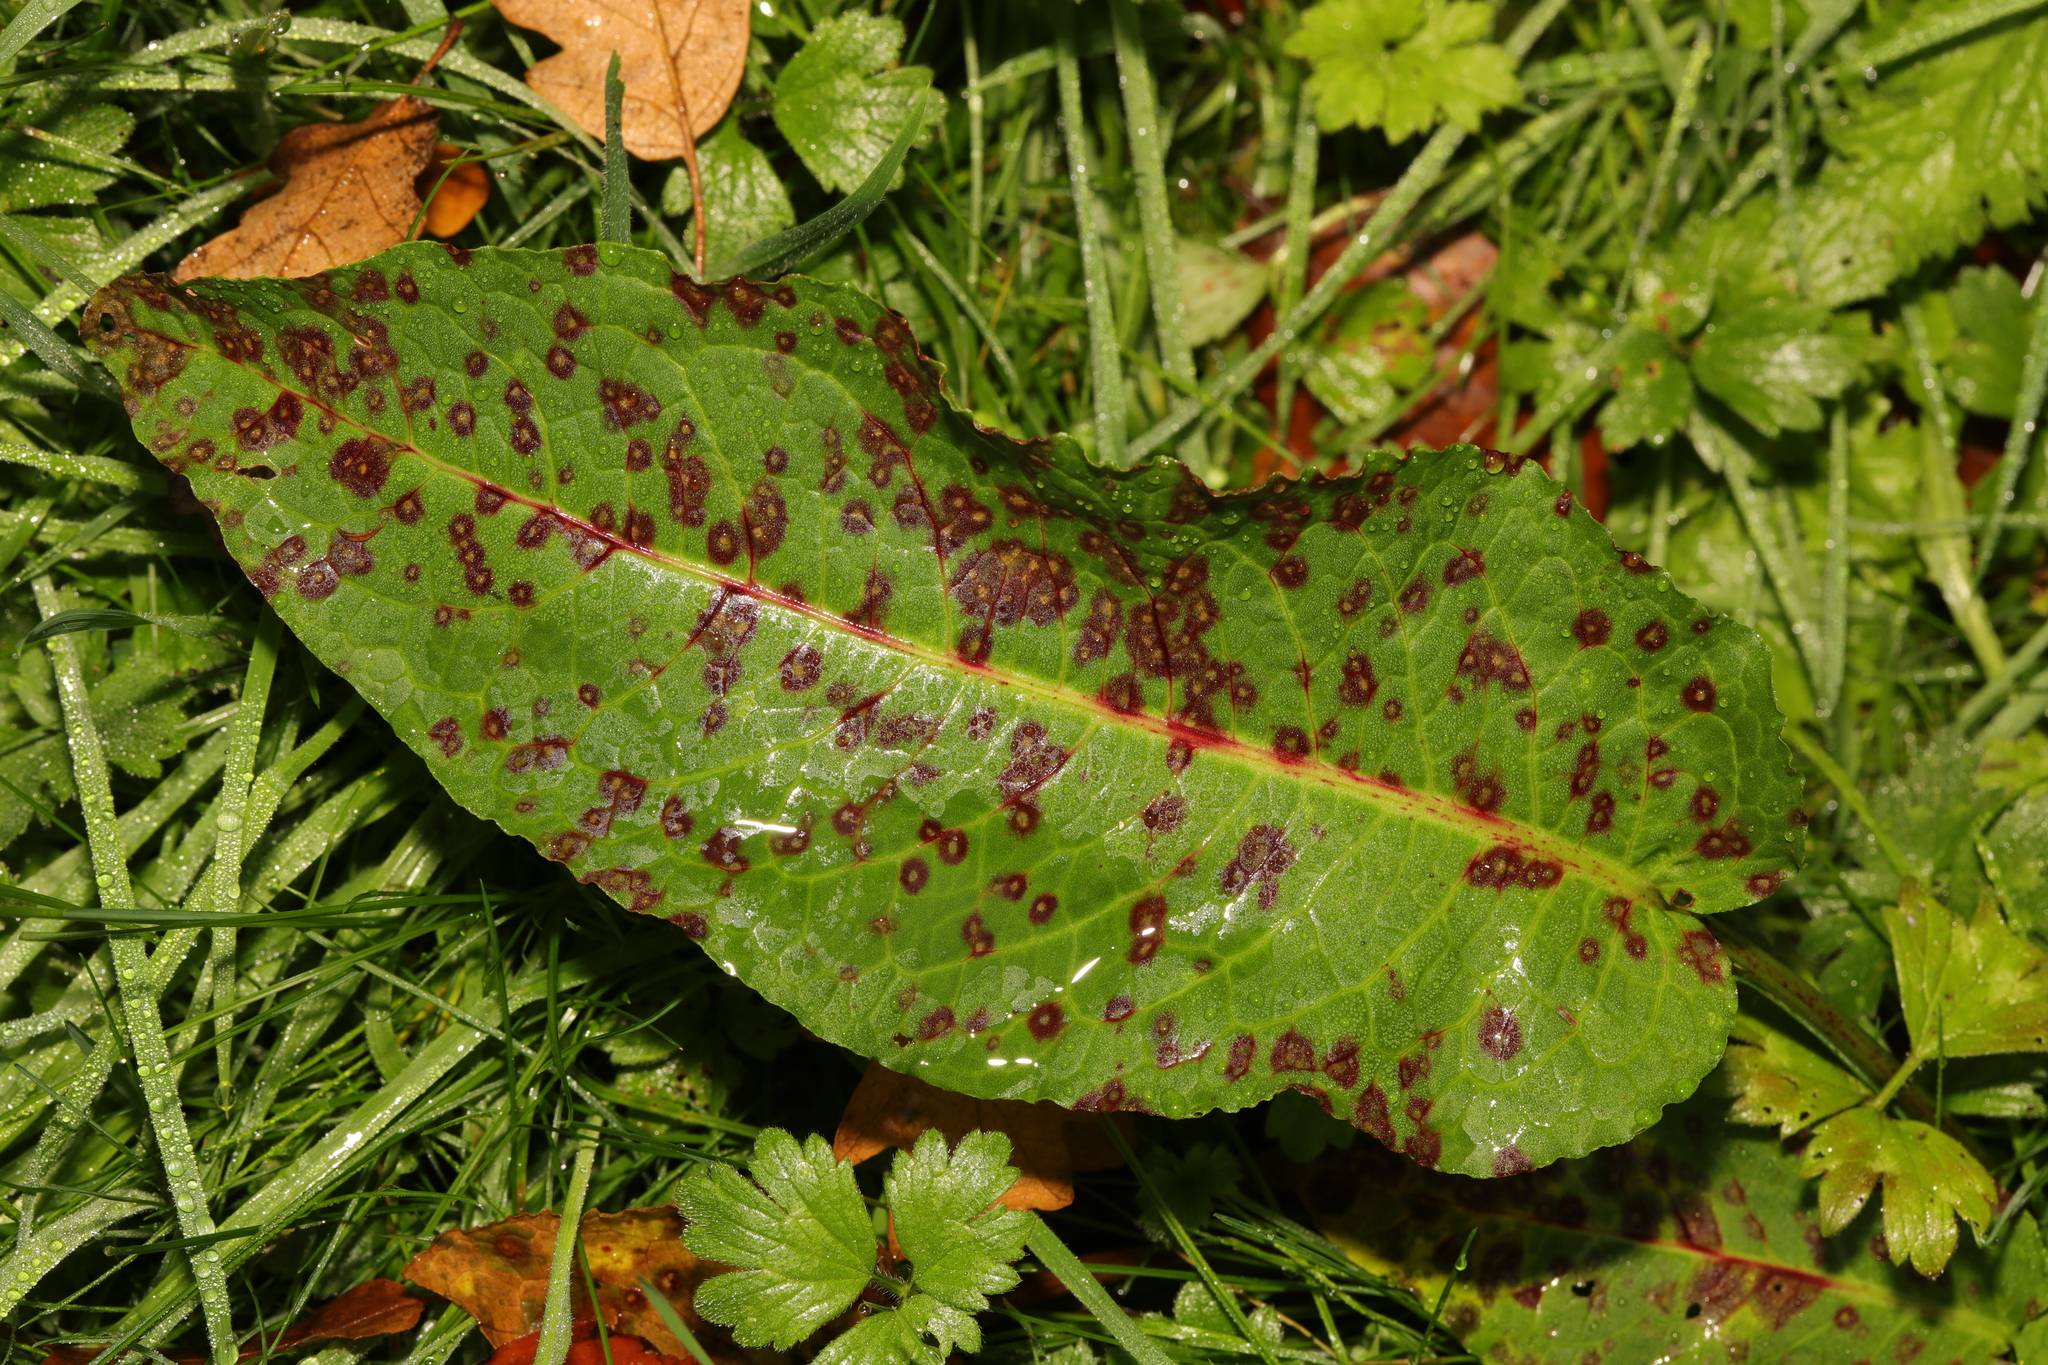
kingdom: Plantae
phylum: Tracheophyta
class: Magnoliopsida
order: Caryophyllales
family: Polygonaceae
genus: Rumex
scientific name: Rumex obtusifolius
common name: Bitter dock
